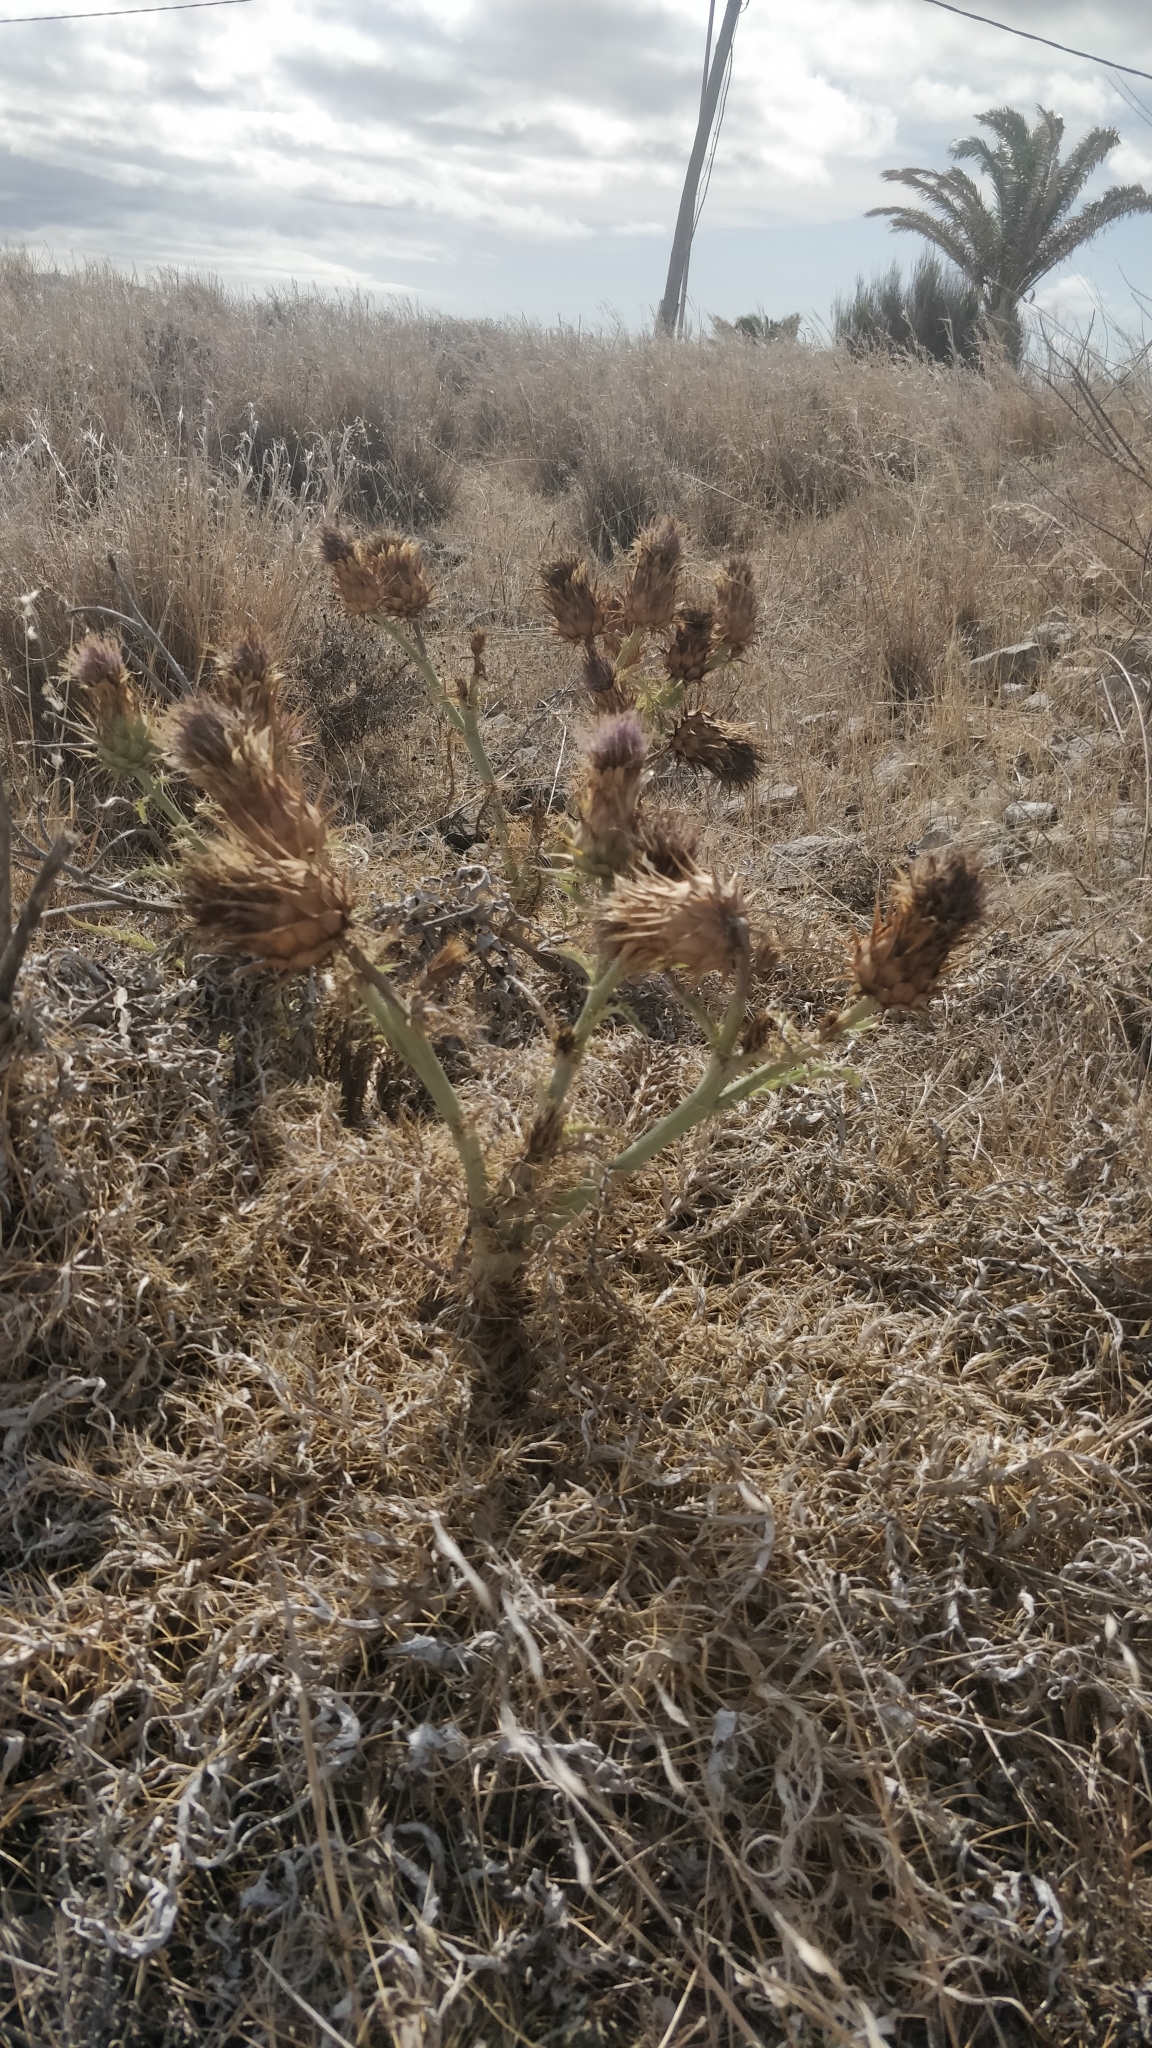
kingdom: Plantae
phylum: Tracheophyta
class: Magnoliopsida
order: Asterales
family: Asteraceae
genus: Cynara
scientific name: Cynara cardunculus
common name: Globe artichoke
